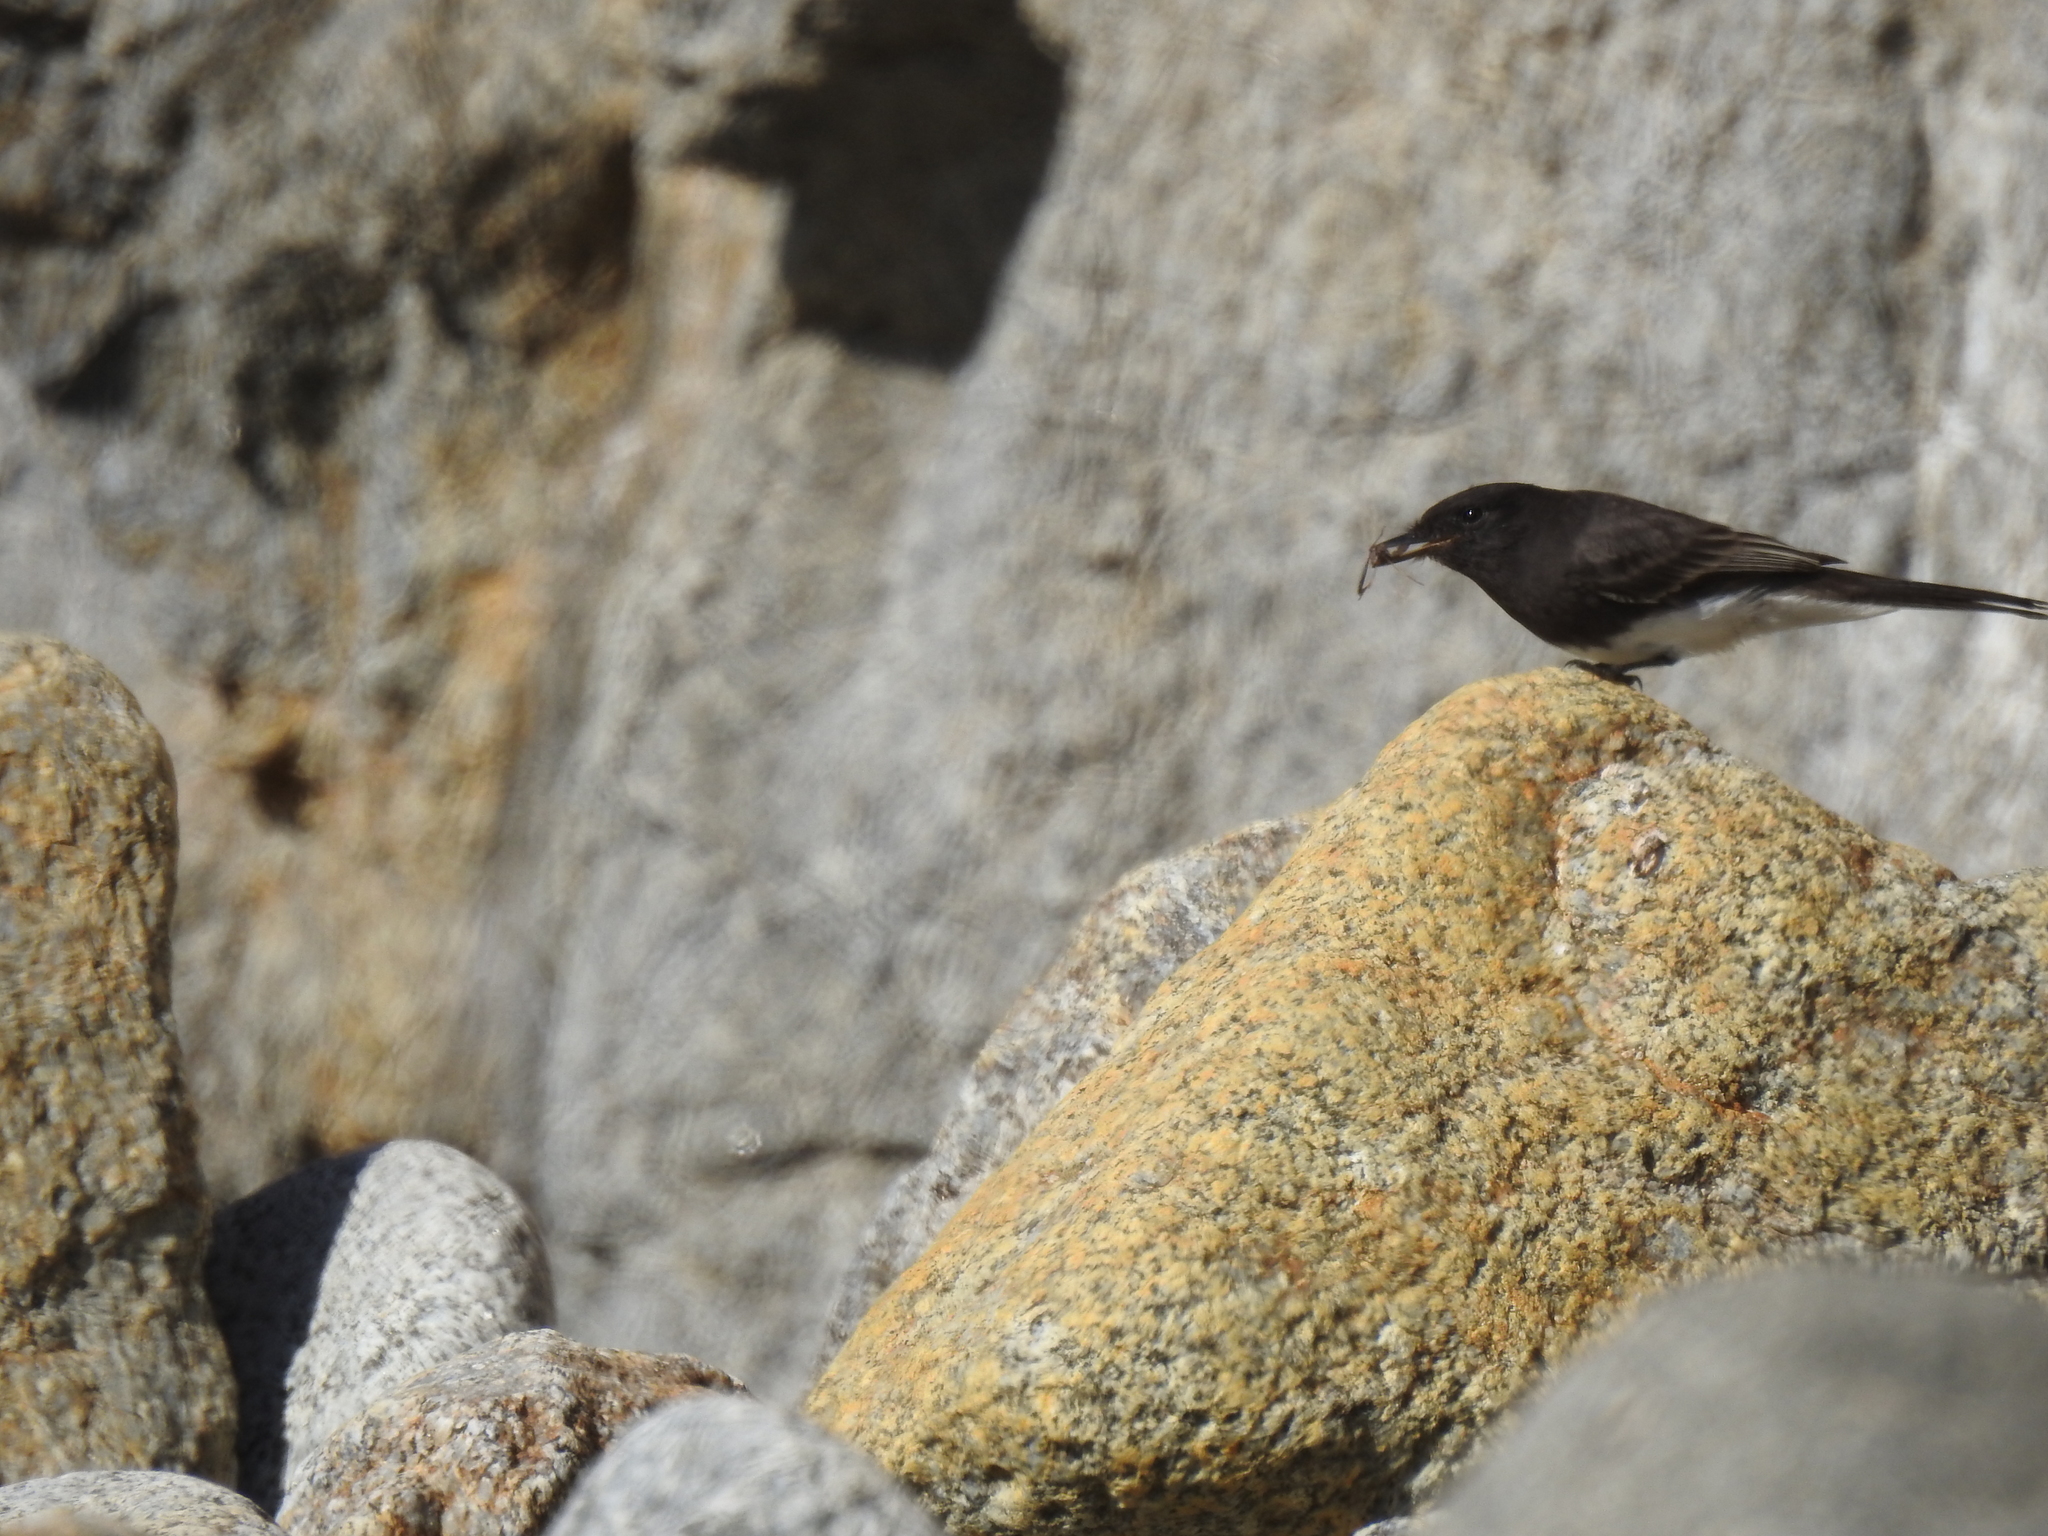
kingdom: Animalia
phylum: Chordata
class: Aves
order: Passeriformes
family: Tyrannidae
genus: Sayornis
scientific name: Sayornis nigricans
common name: Black phoebe
